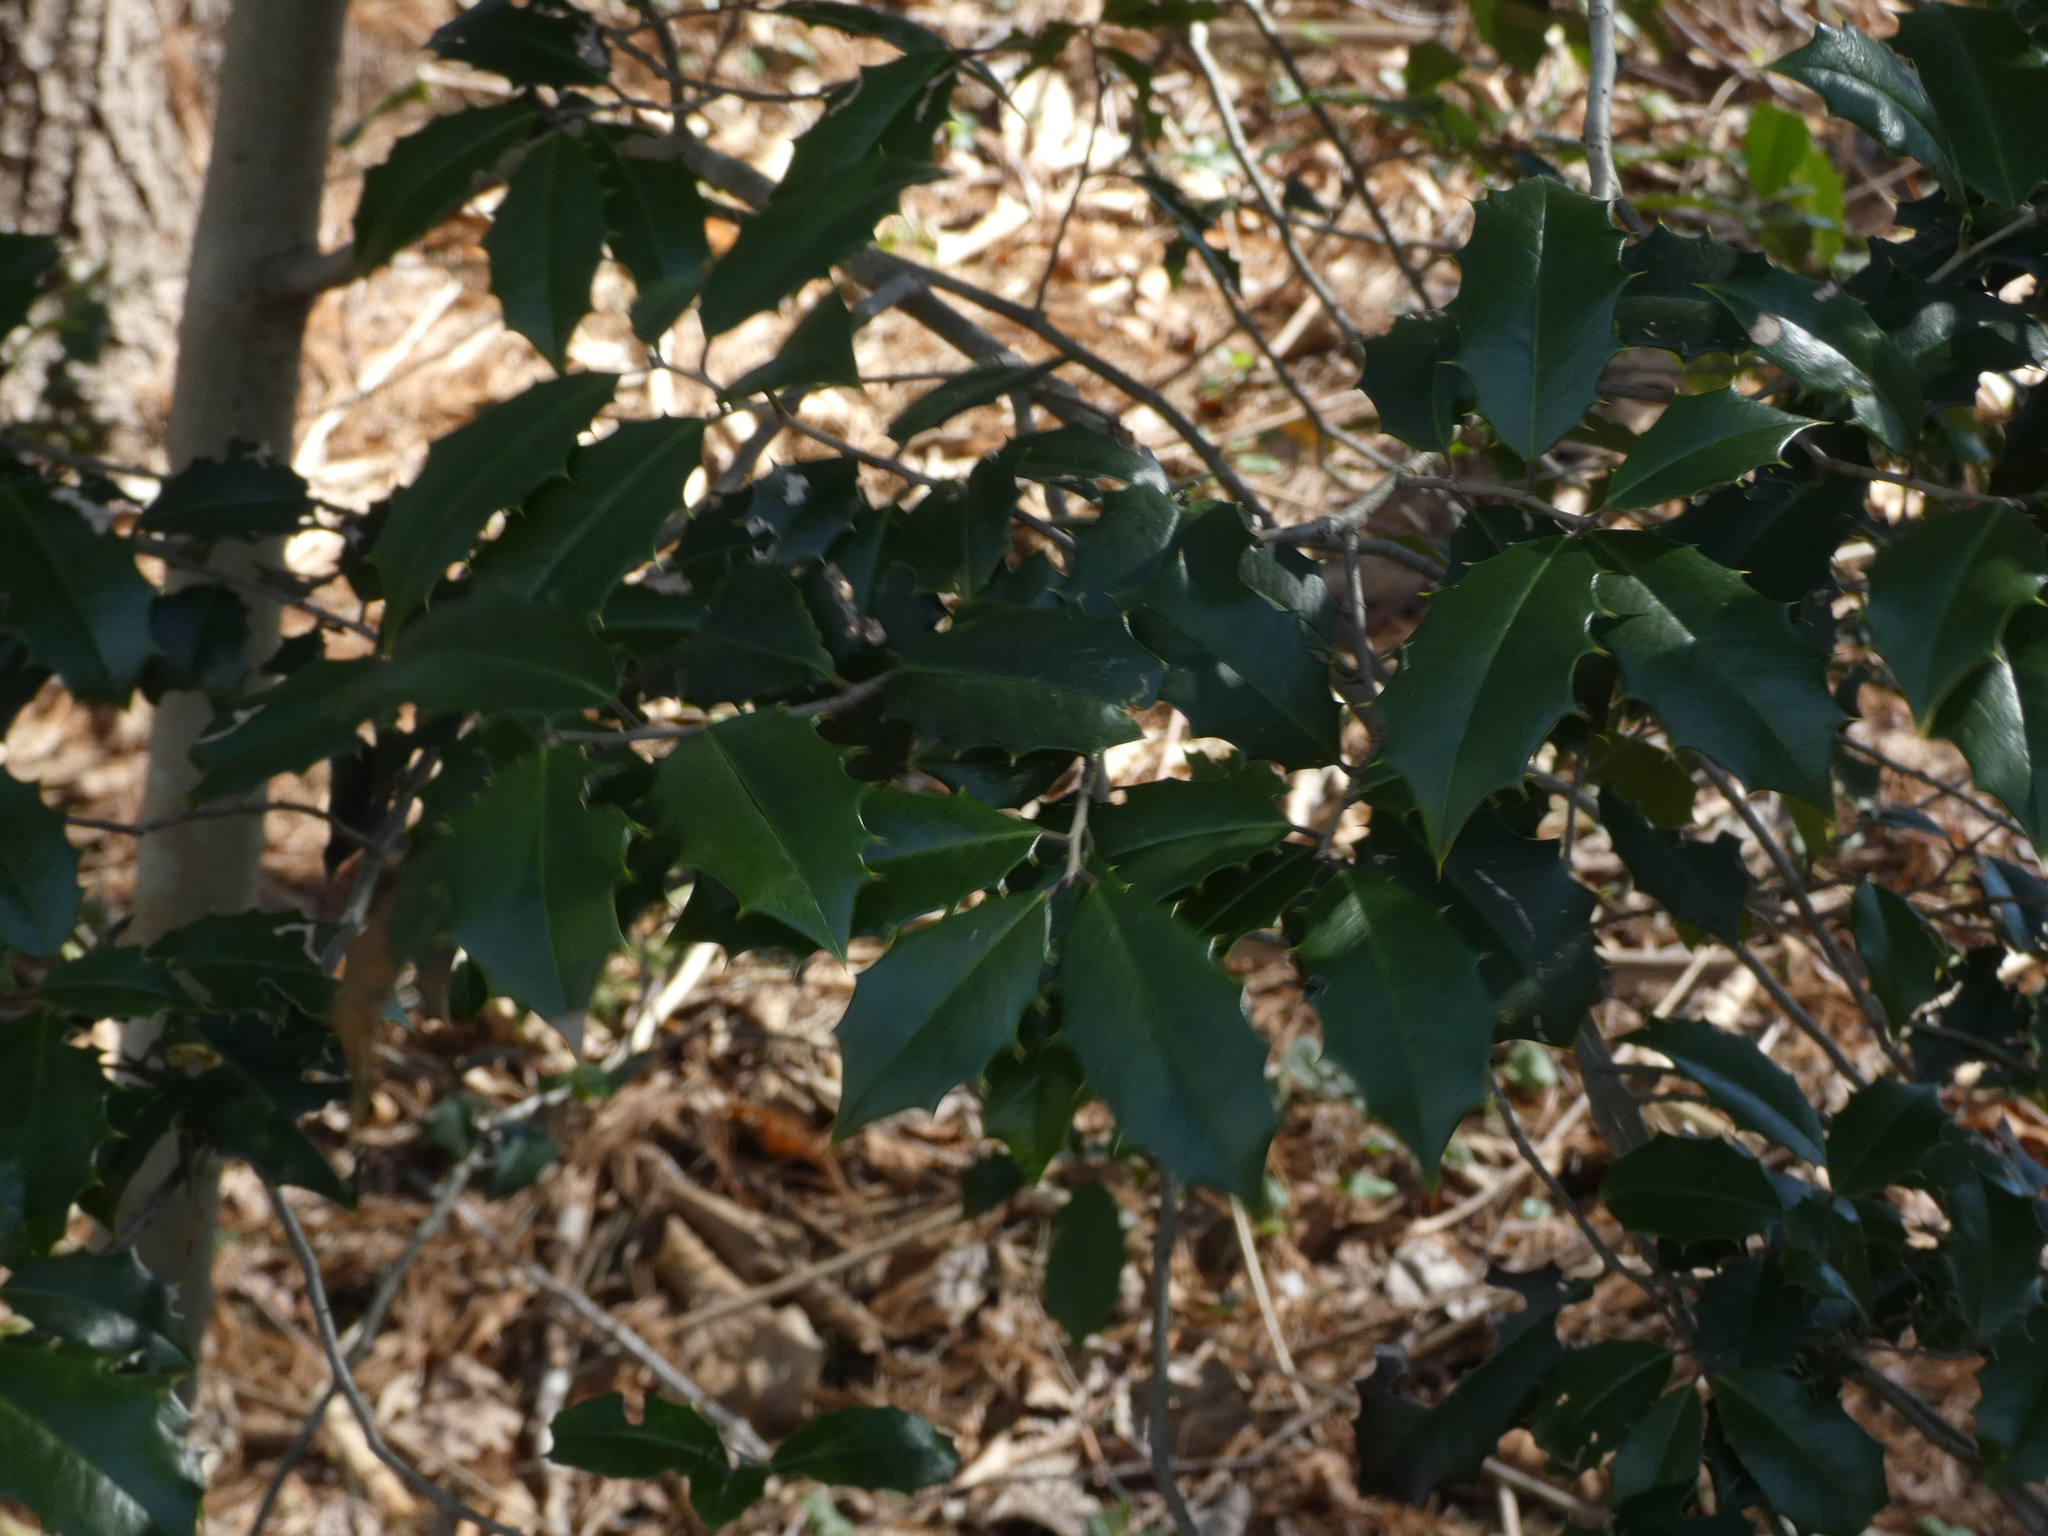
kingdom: Plantae
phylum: Tracheophyta
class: Magnoliopsida
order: Aquifoliales
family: Aquifoliaceae
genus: Ilex
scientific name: Ilex opaca
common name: American holly
